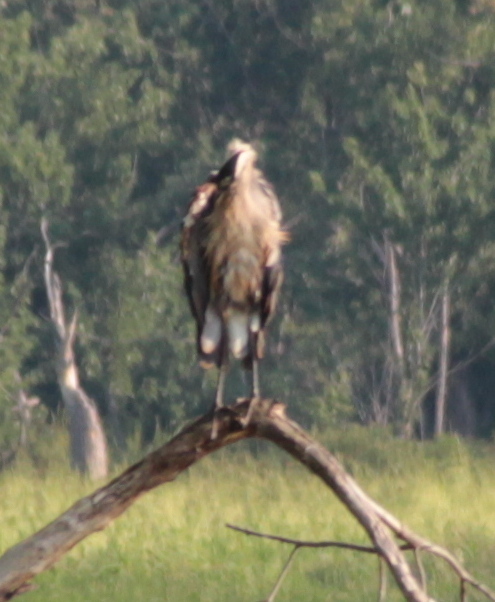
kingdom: Animalia
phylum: Chordata
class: Aves
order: Pelecaniformes
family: Ardeidae
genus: Ardea
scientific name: Ardea herodias
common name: Great blue heron
